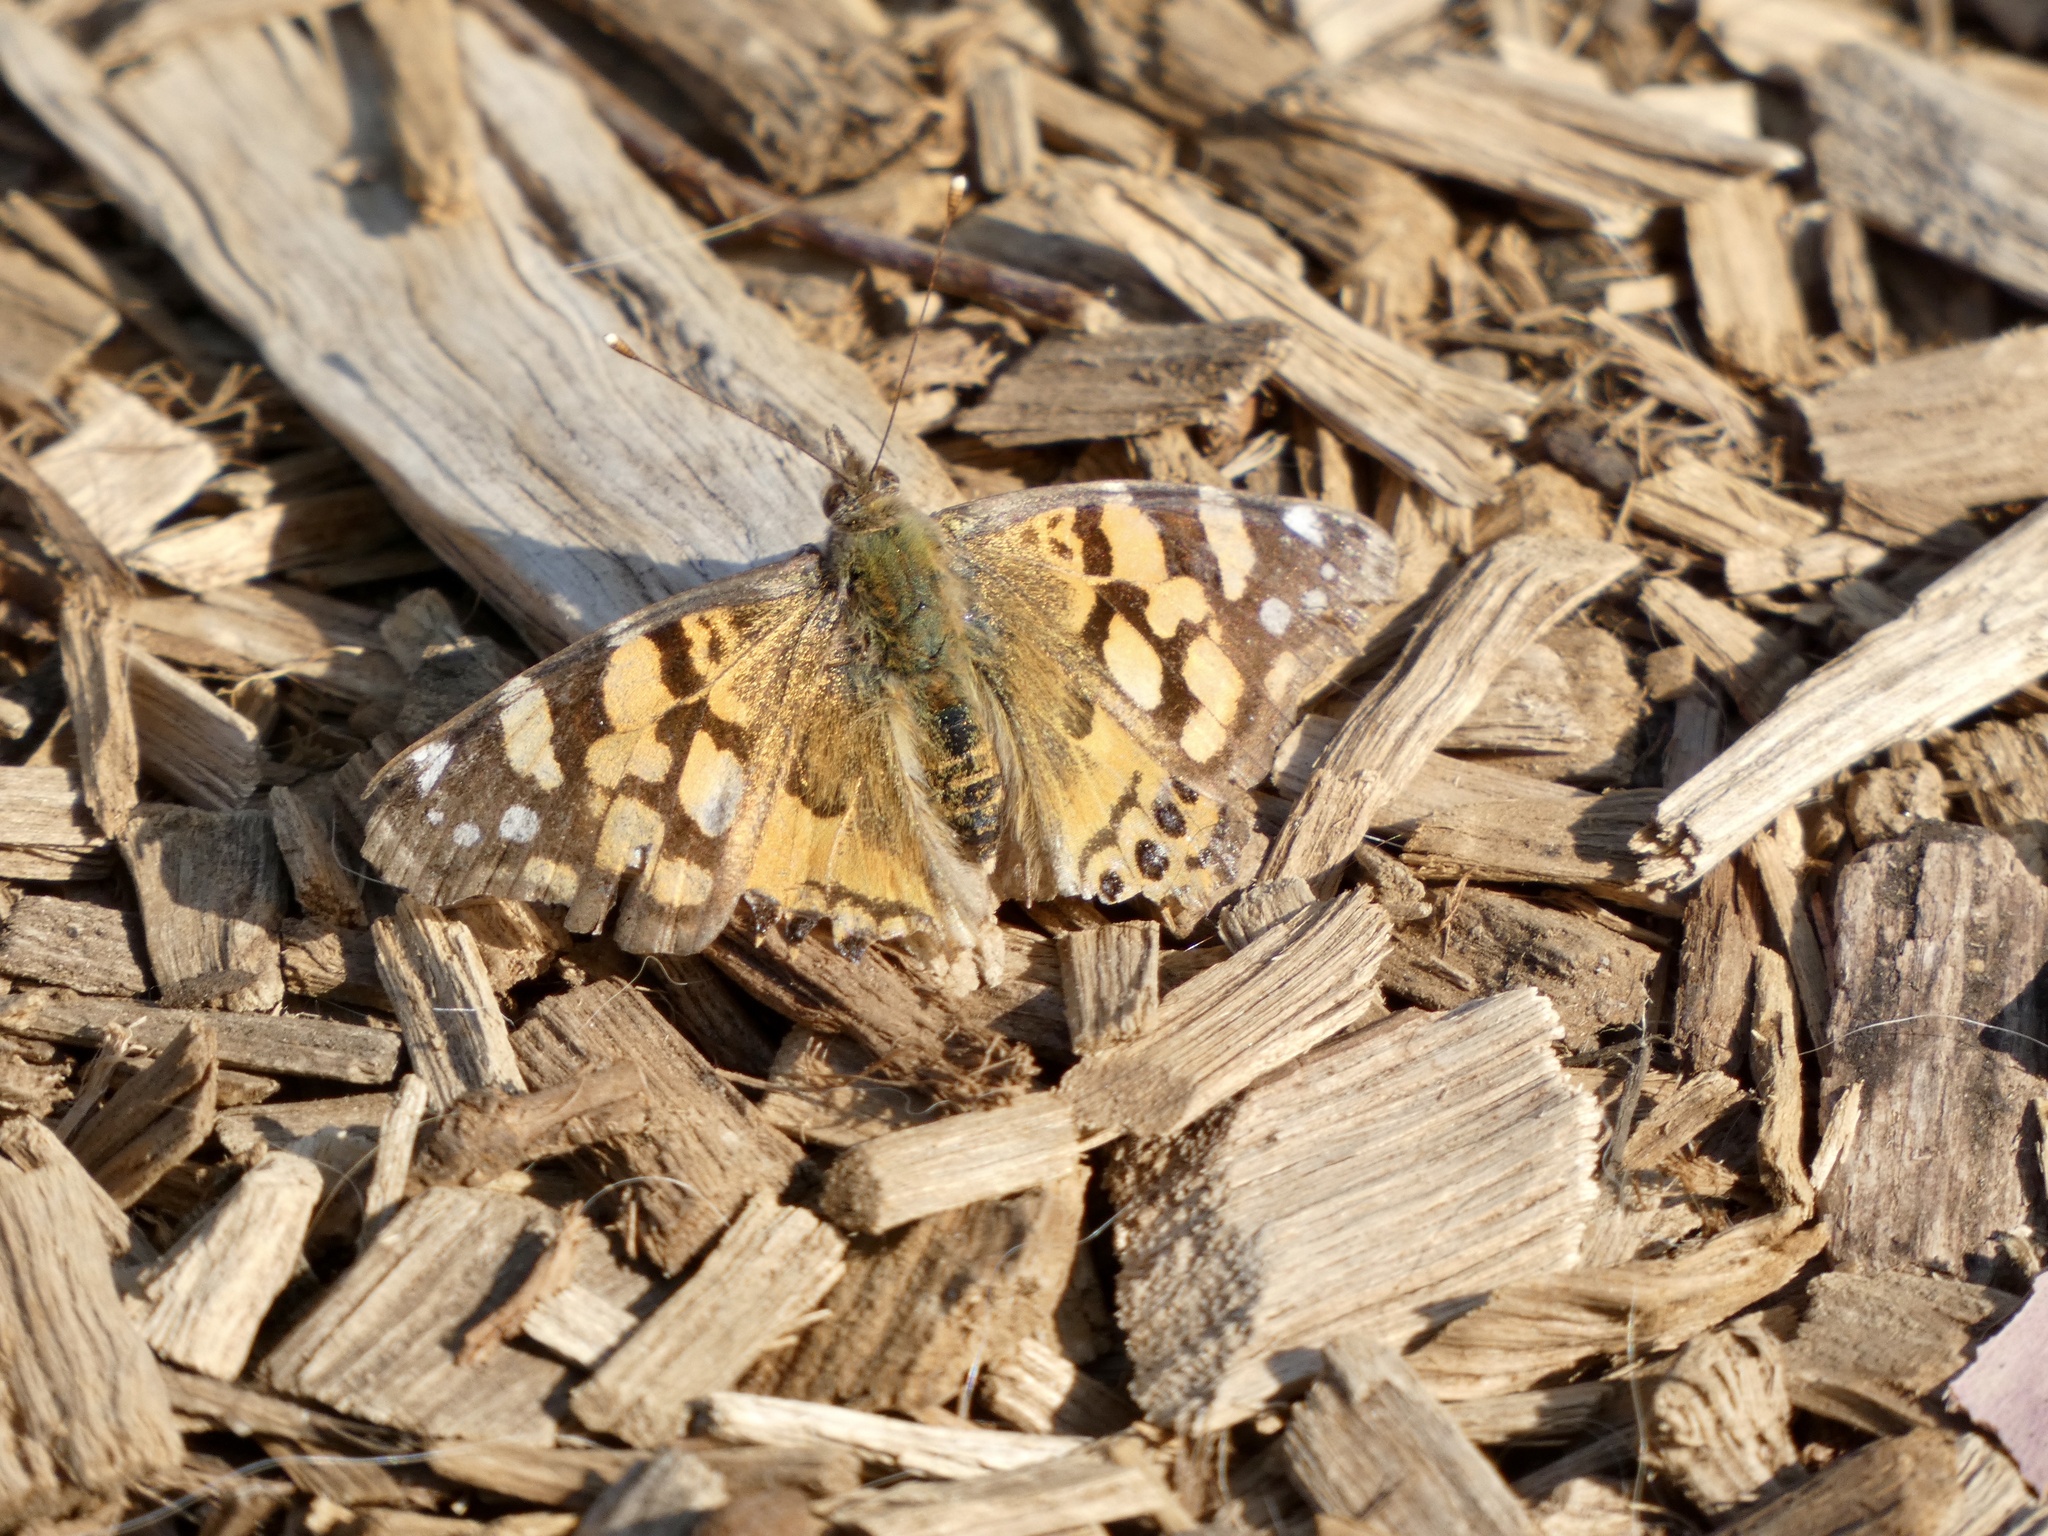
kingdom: Animalia
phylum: Arthropoda
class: Insecta
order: Lepidoptera
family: Nymphalidae
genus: Vanessa
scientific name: Vanessa annabella
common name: West coast lady
